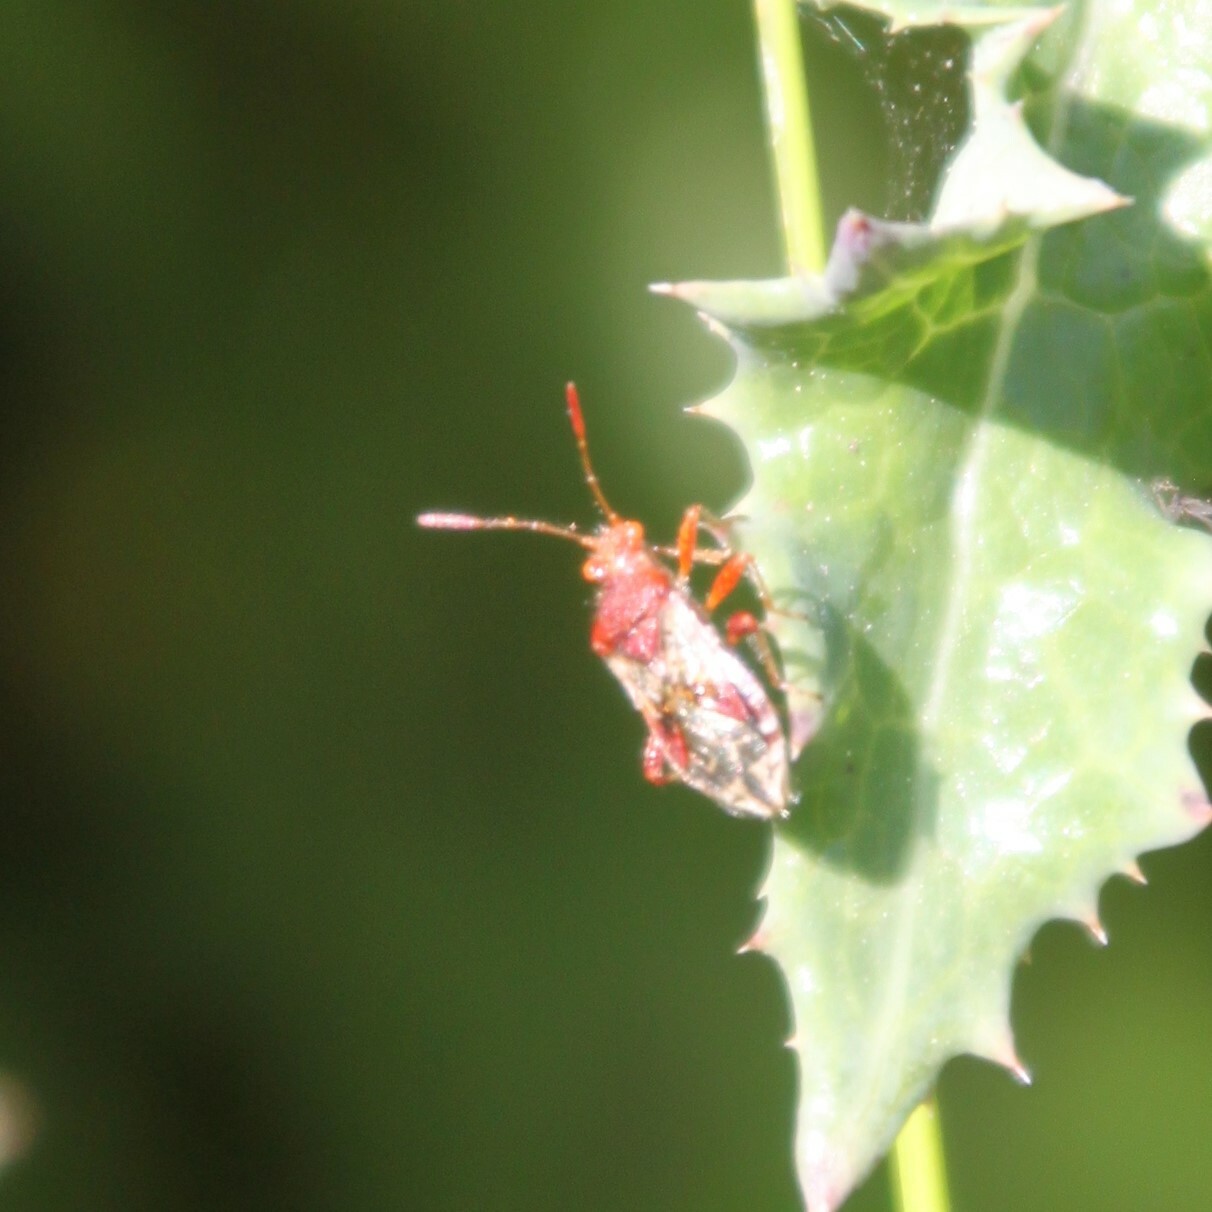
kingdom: Animalia
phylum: Arthropoda
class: Insecta
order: Hemiptera
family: Rhopalidae
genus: Rhopalus
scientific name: Rhopalus subrufus
